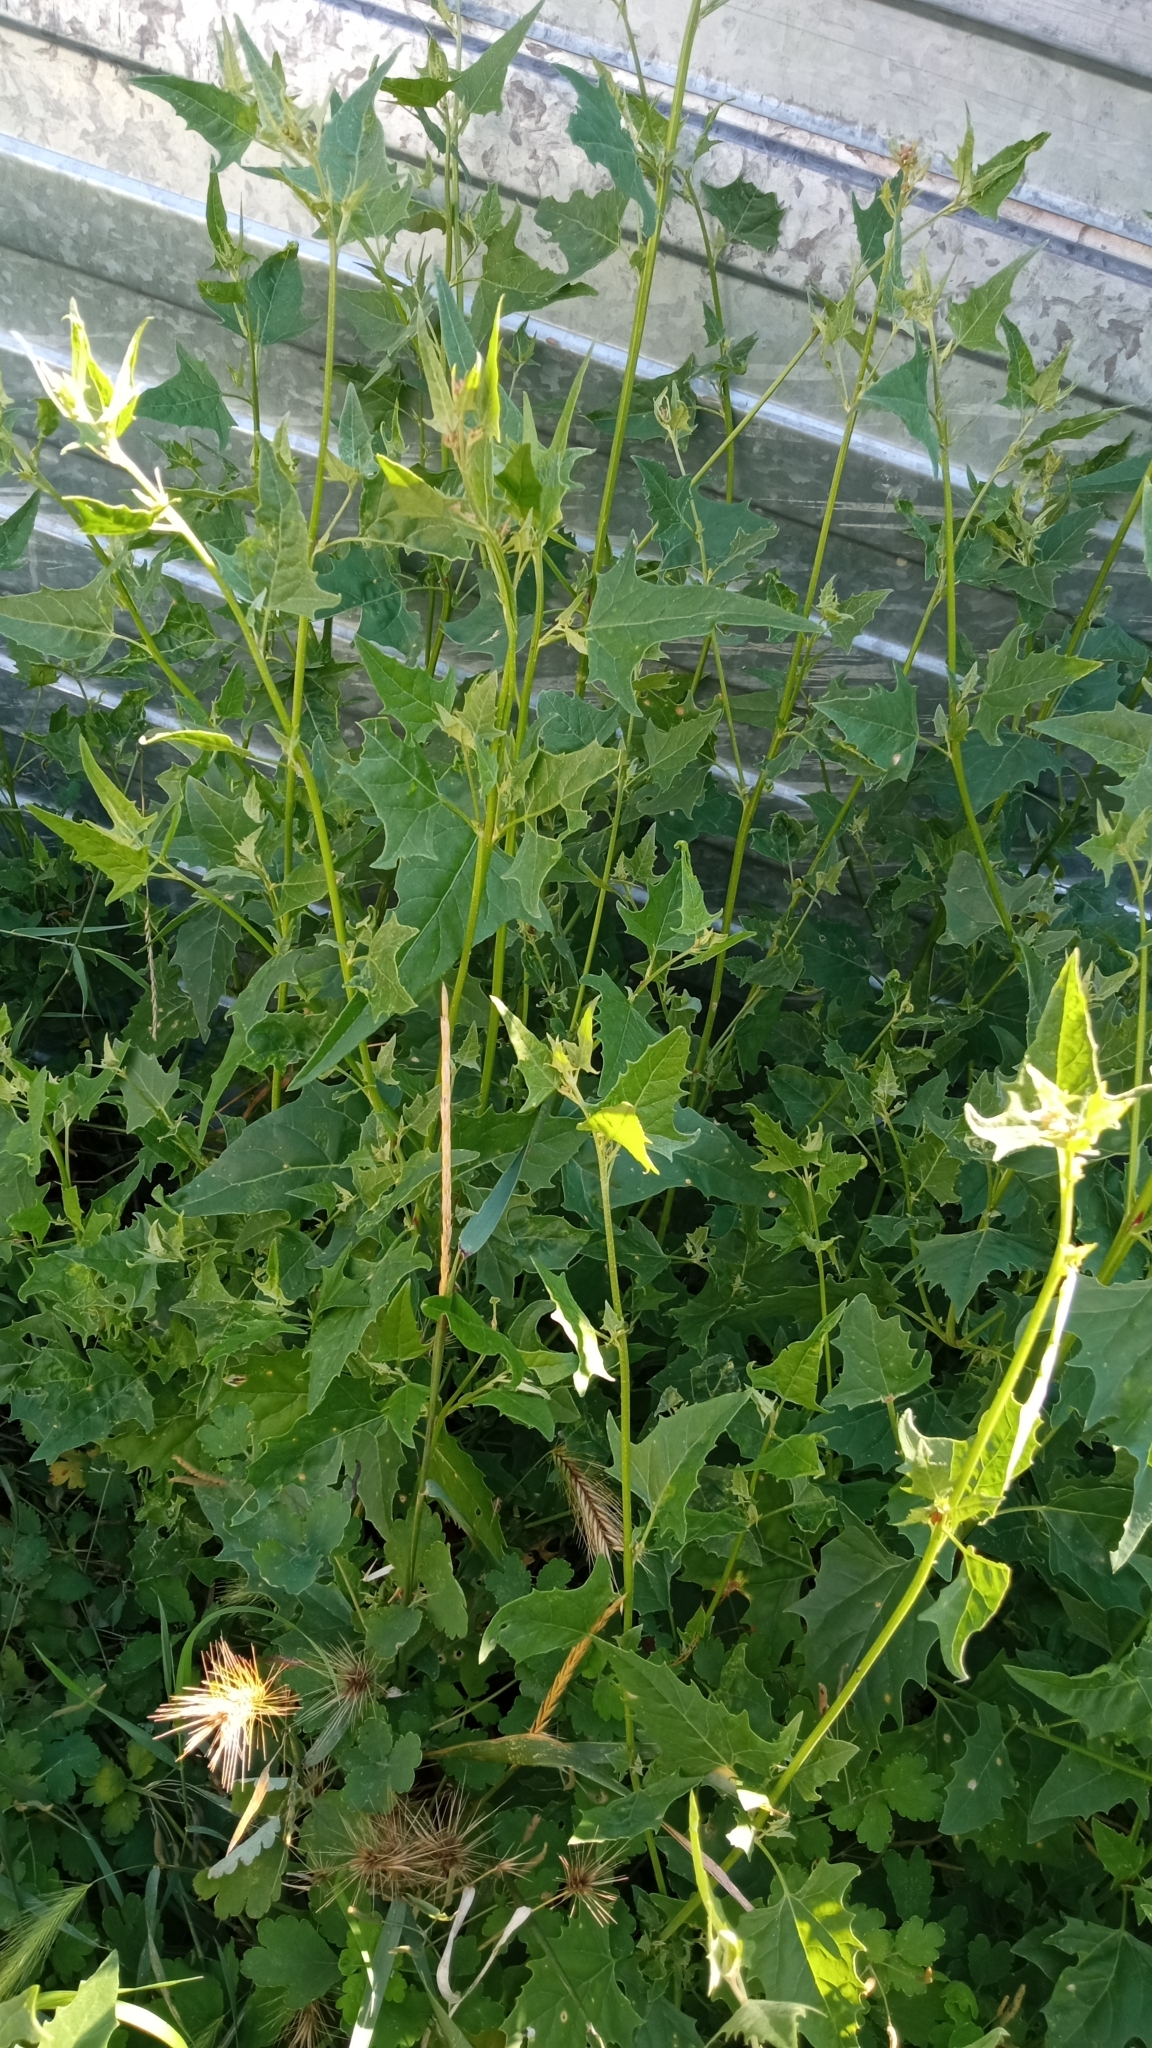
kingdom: Plantae
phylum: Tracheophyta
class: Magnoliopsida
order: Caryophyllales
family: Amaranthaceae
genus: Atriplex
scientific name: Atriplex sagittata
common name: Purple orache
